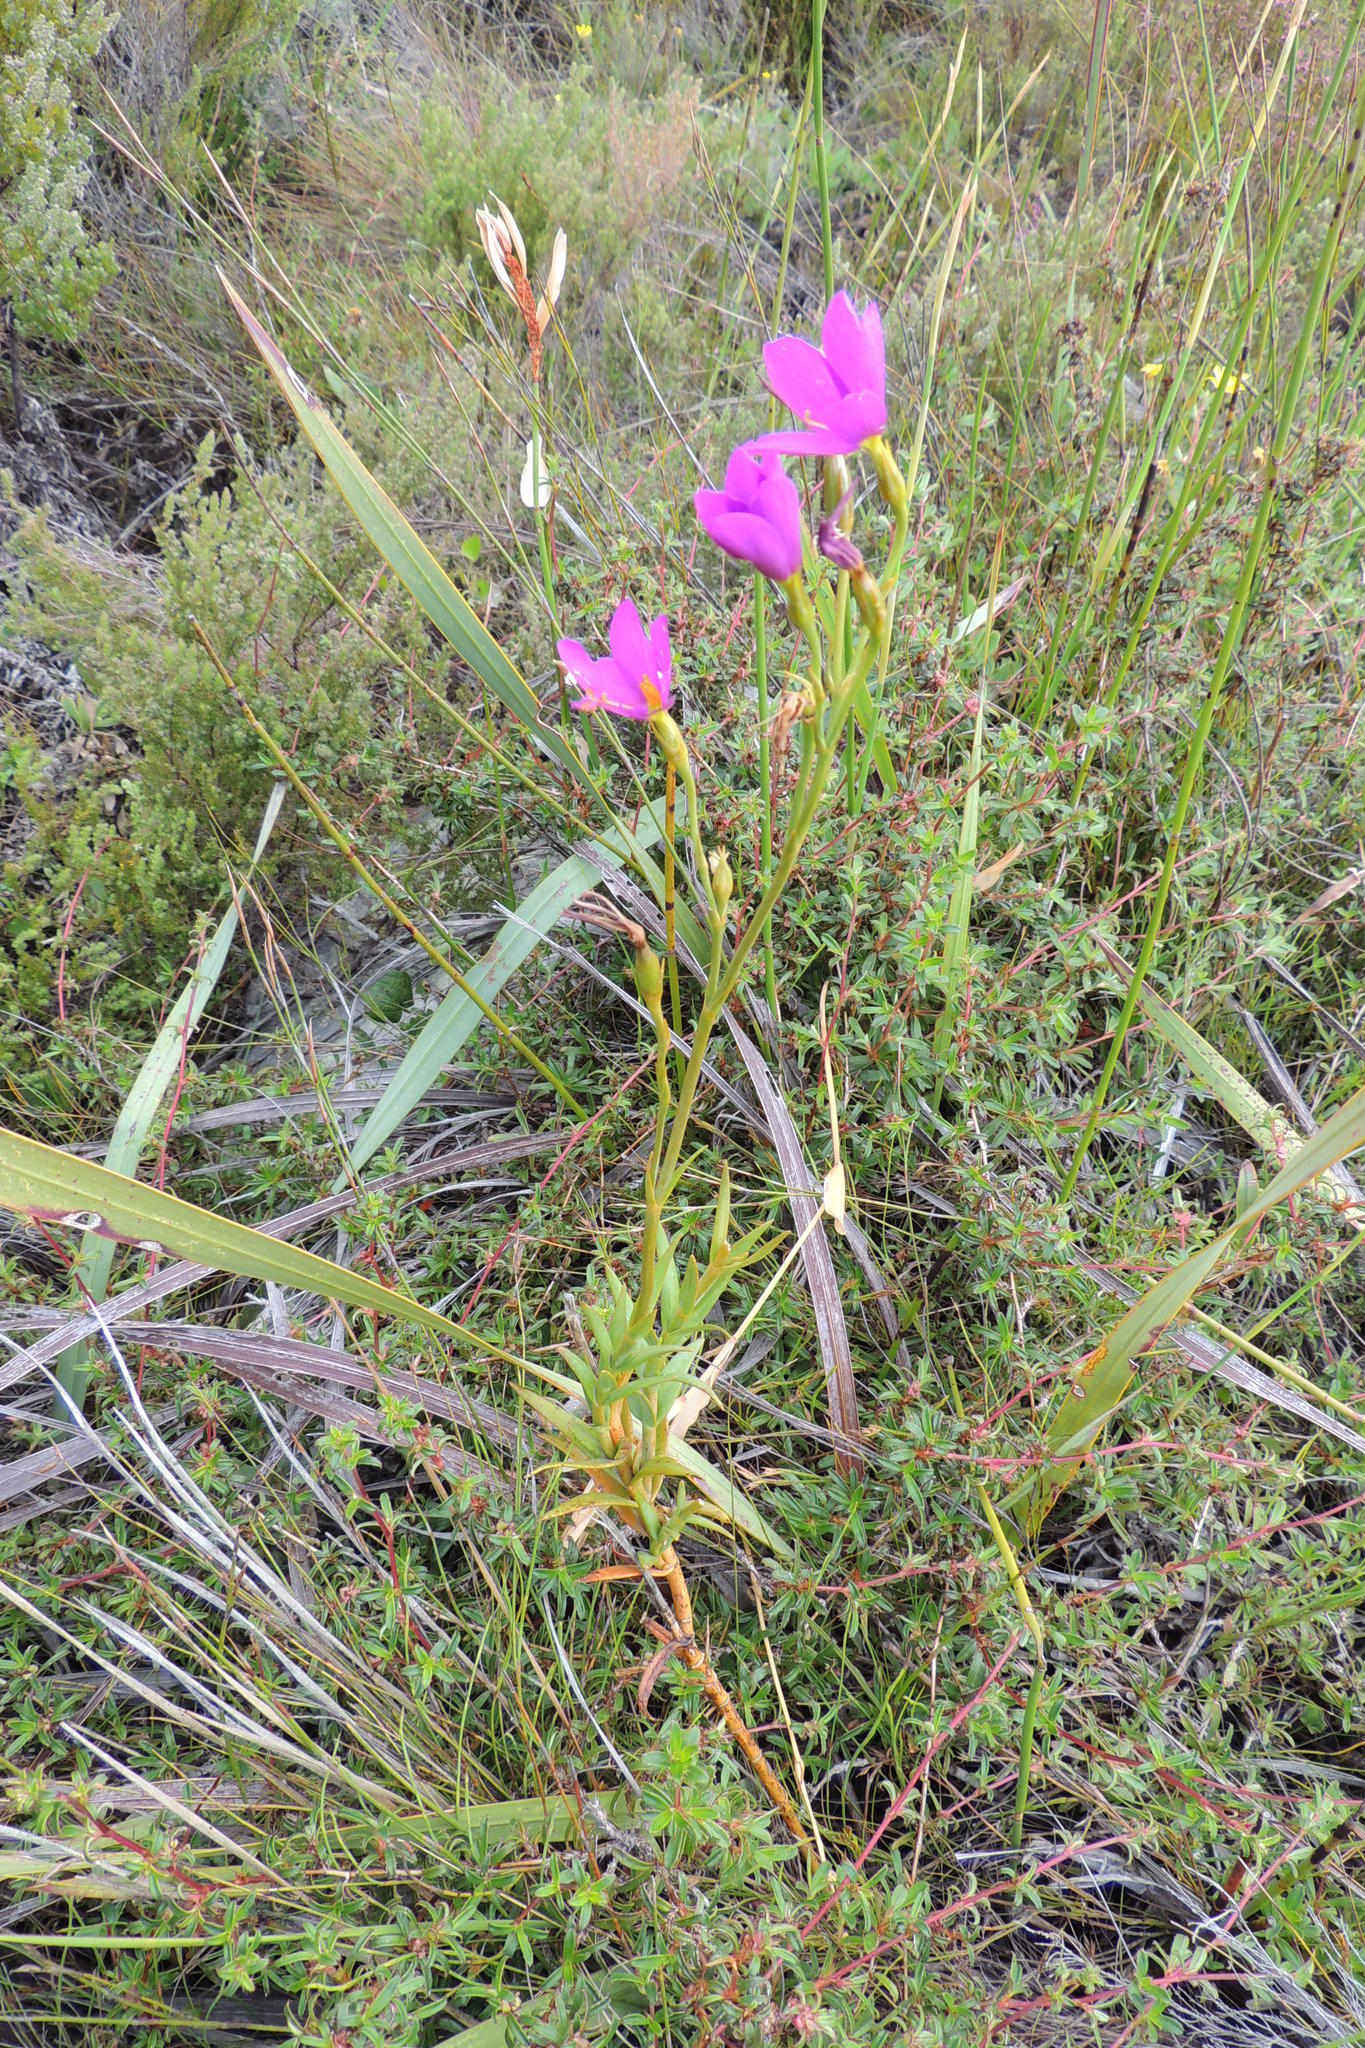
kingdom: Plantae
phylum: Tracheophyta
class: Magnoliopsida
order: Gentianales
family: Gentianaceae
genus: Chironia
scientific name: Chironia jasminoides
